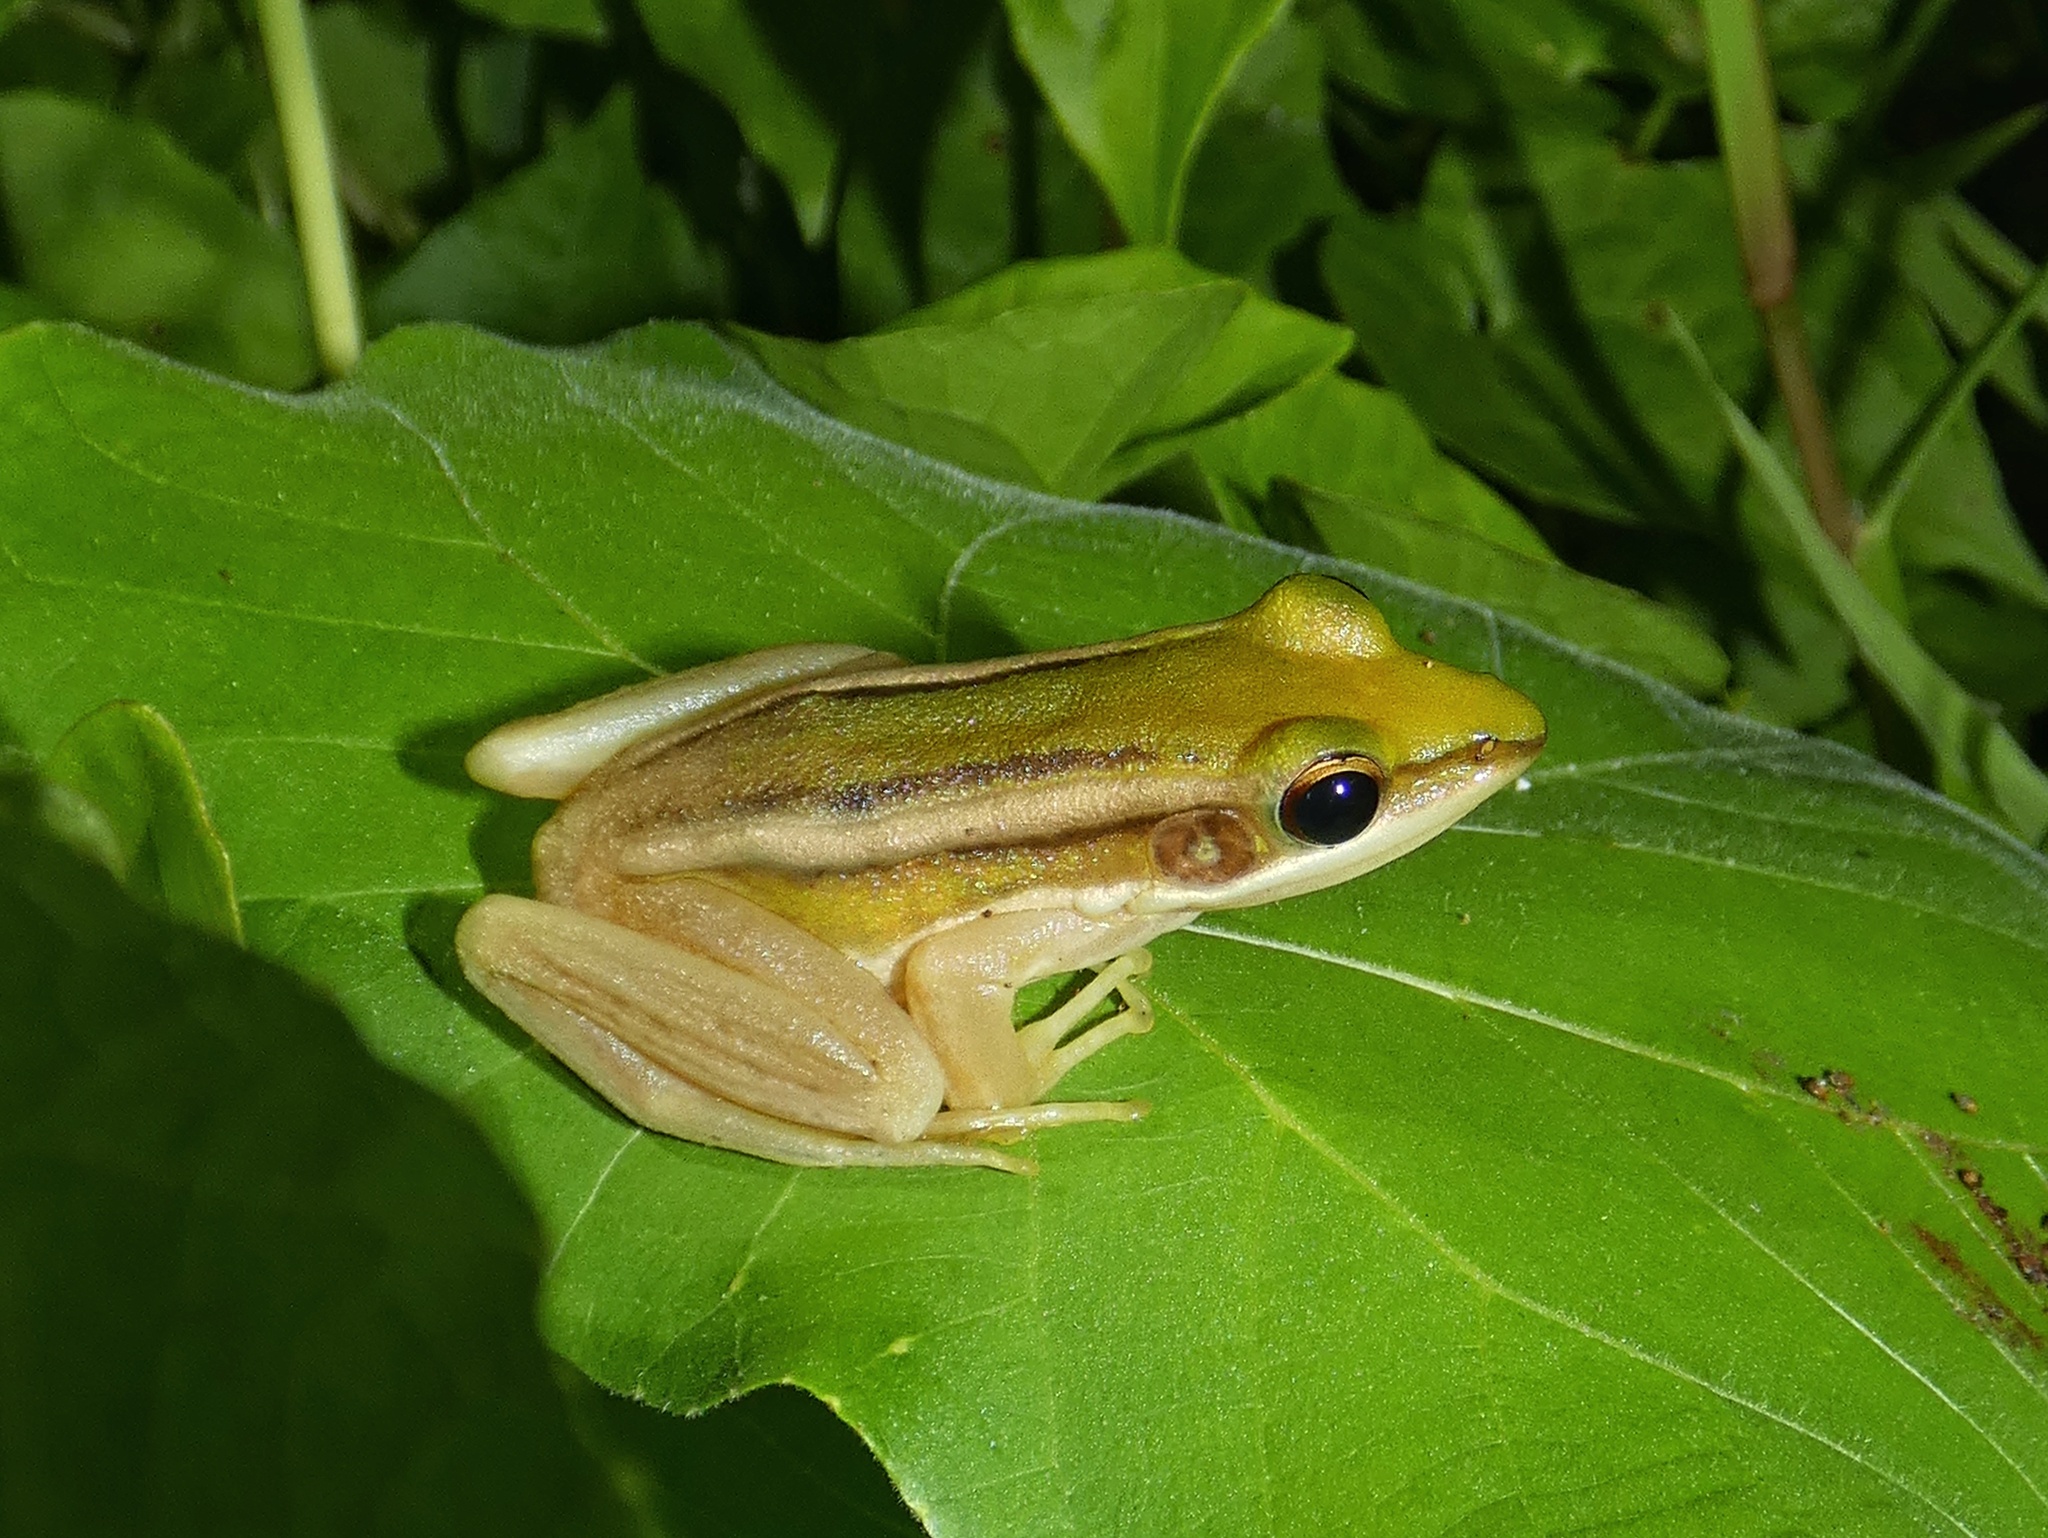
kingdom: Animalia
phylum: Chordata
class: Amphibia
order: Anura
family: Ranidae
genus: Hylarana
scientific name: Hylarana erythraea
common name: Common green frog/green paddy frog/leaf frog
